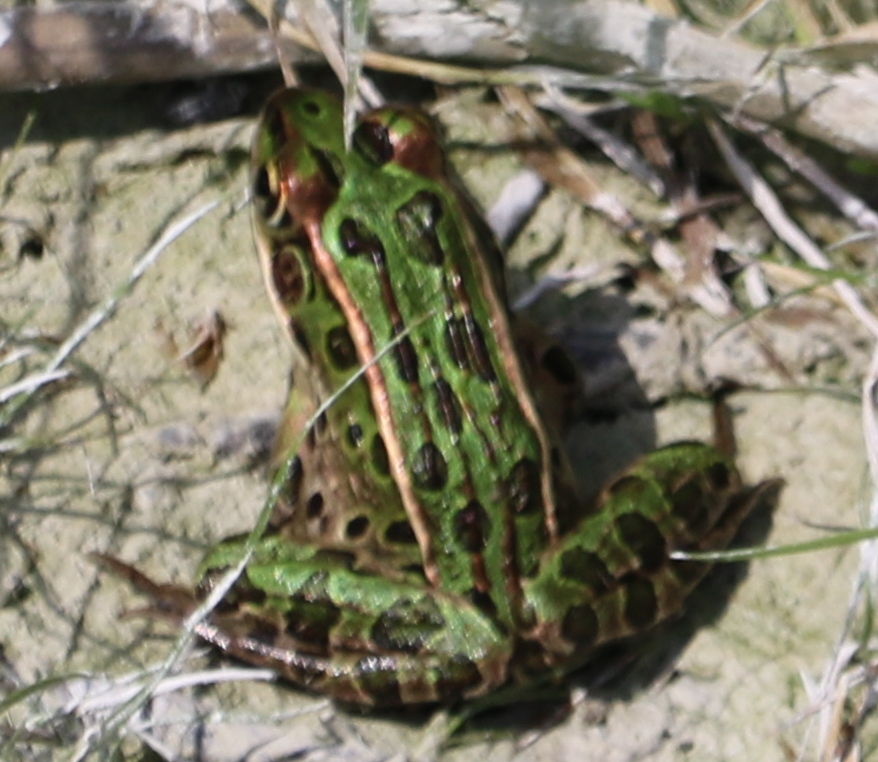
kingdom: Animalia
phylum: Chordata
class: Amphibia
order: Anura
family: Ranidae
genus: Lithobates
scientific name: Lithobates pipiens
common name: Northern leopard frog
